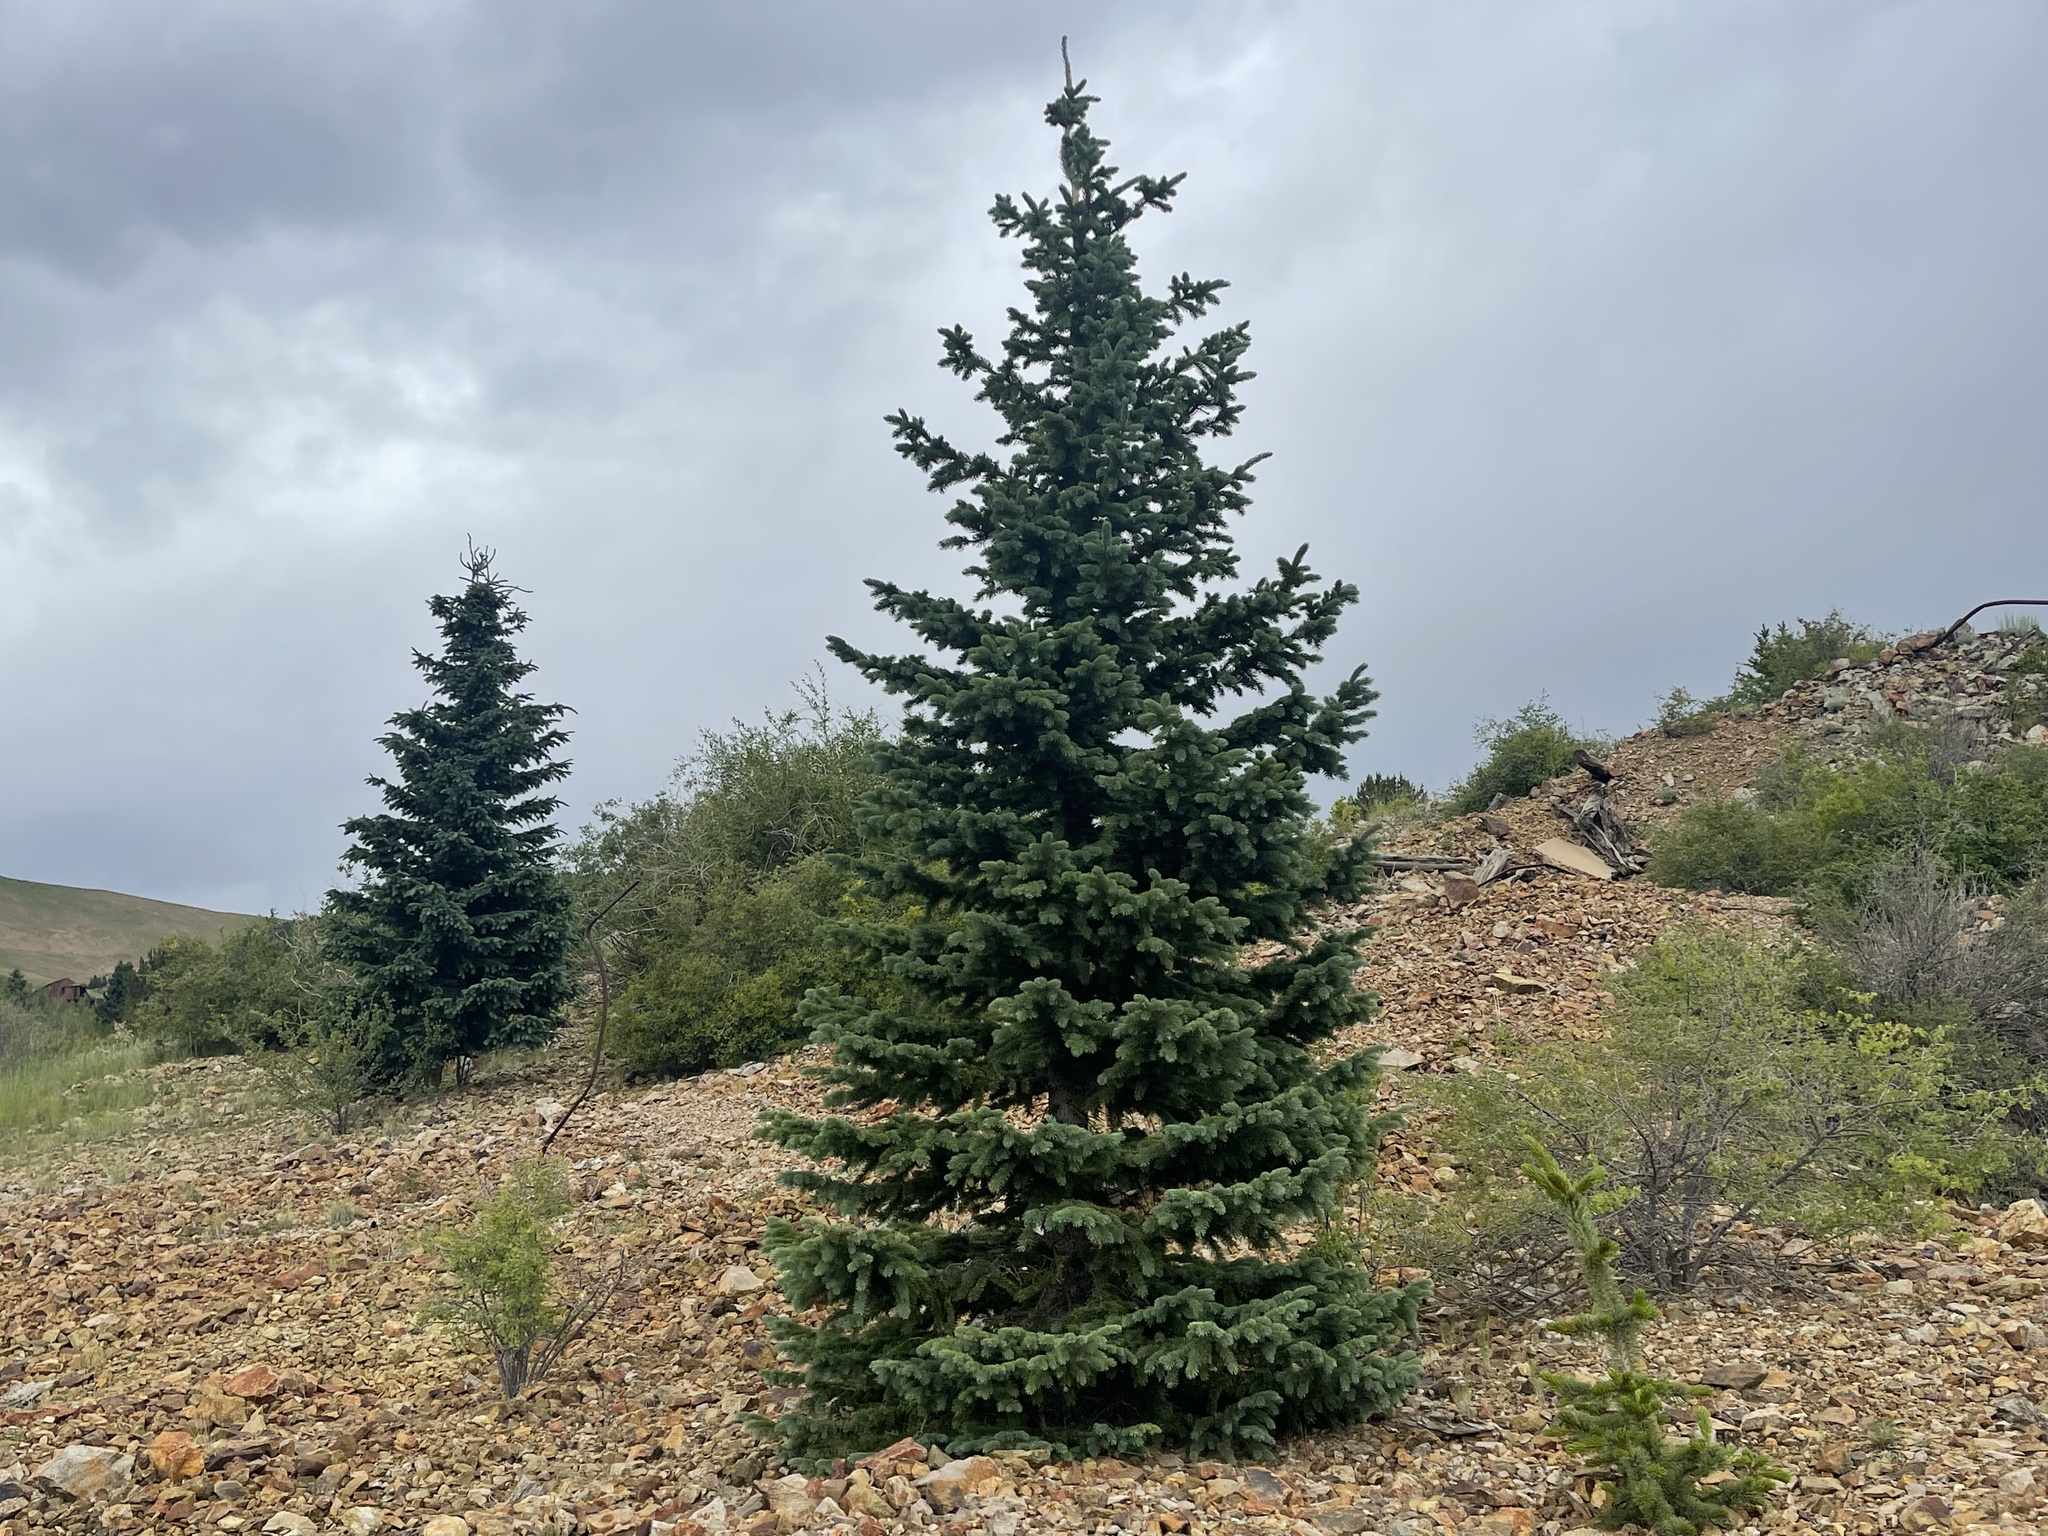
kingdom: Plantae
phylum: Tracheophyta
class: Pinopsida
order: Pinales
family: Pinaceae
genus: Picea
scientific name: Picea pungens
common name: Colorado spruce
